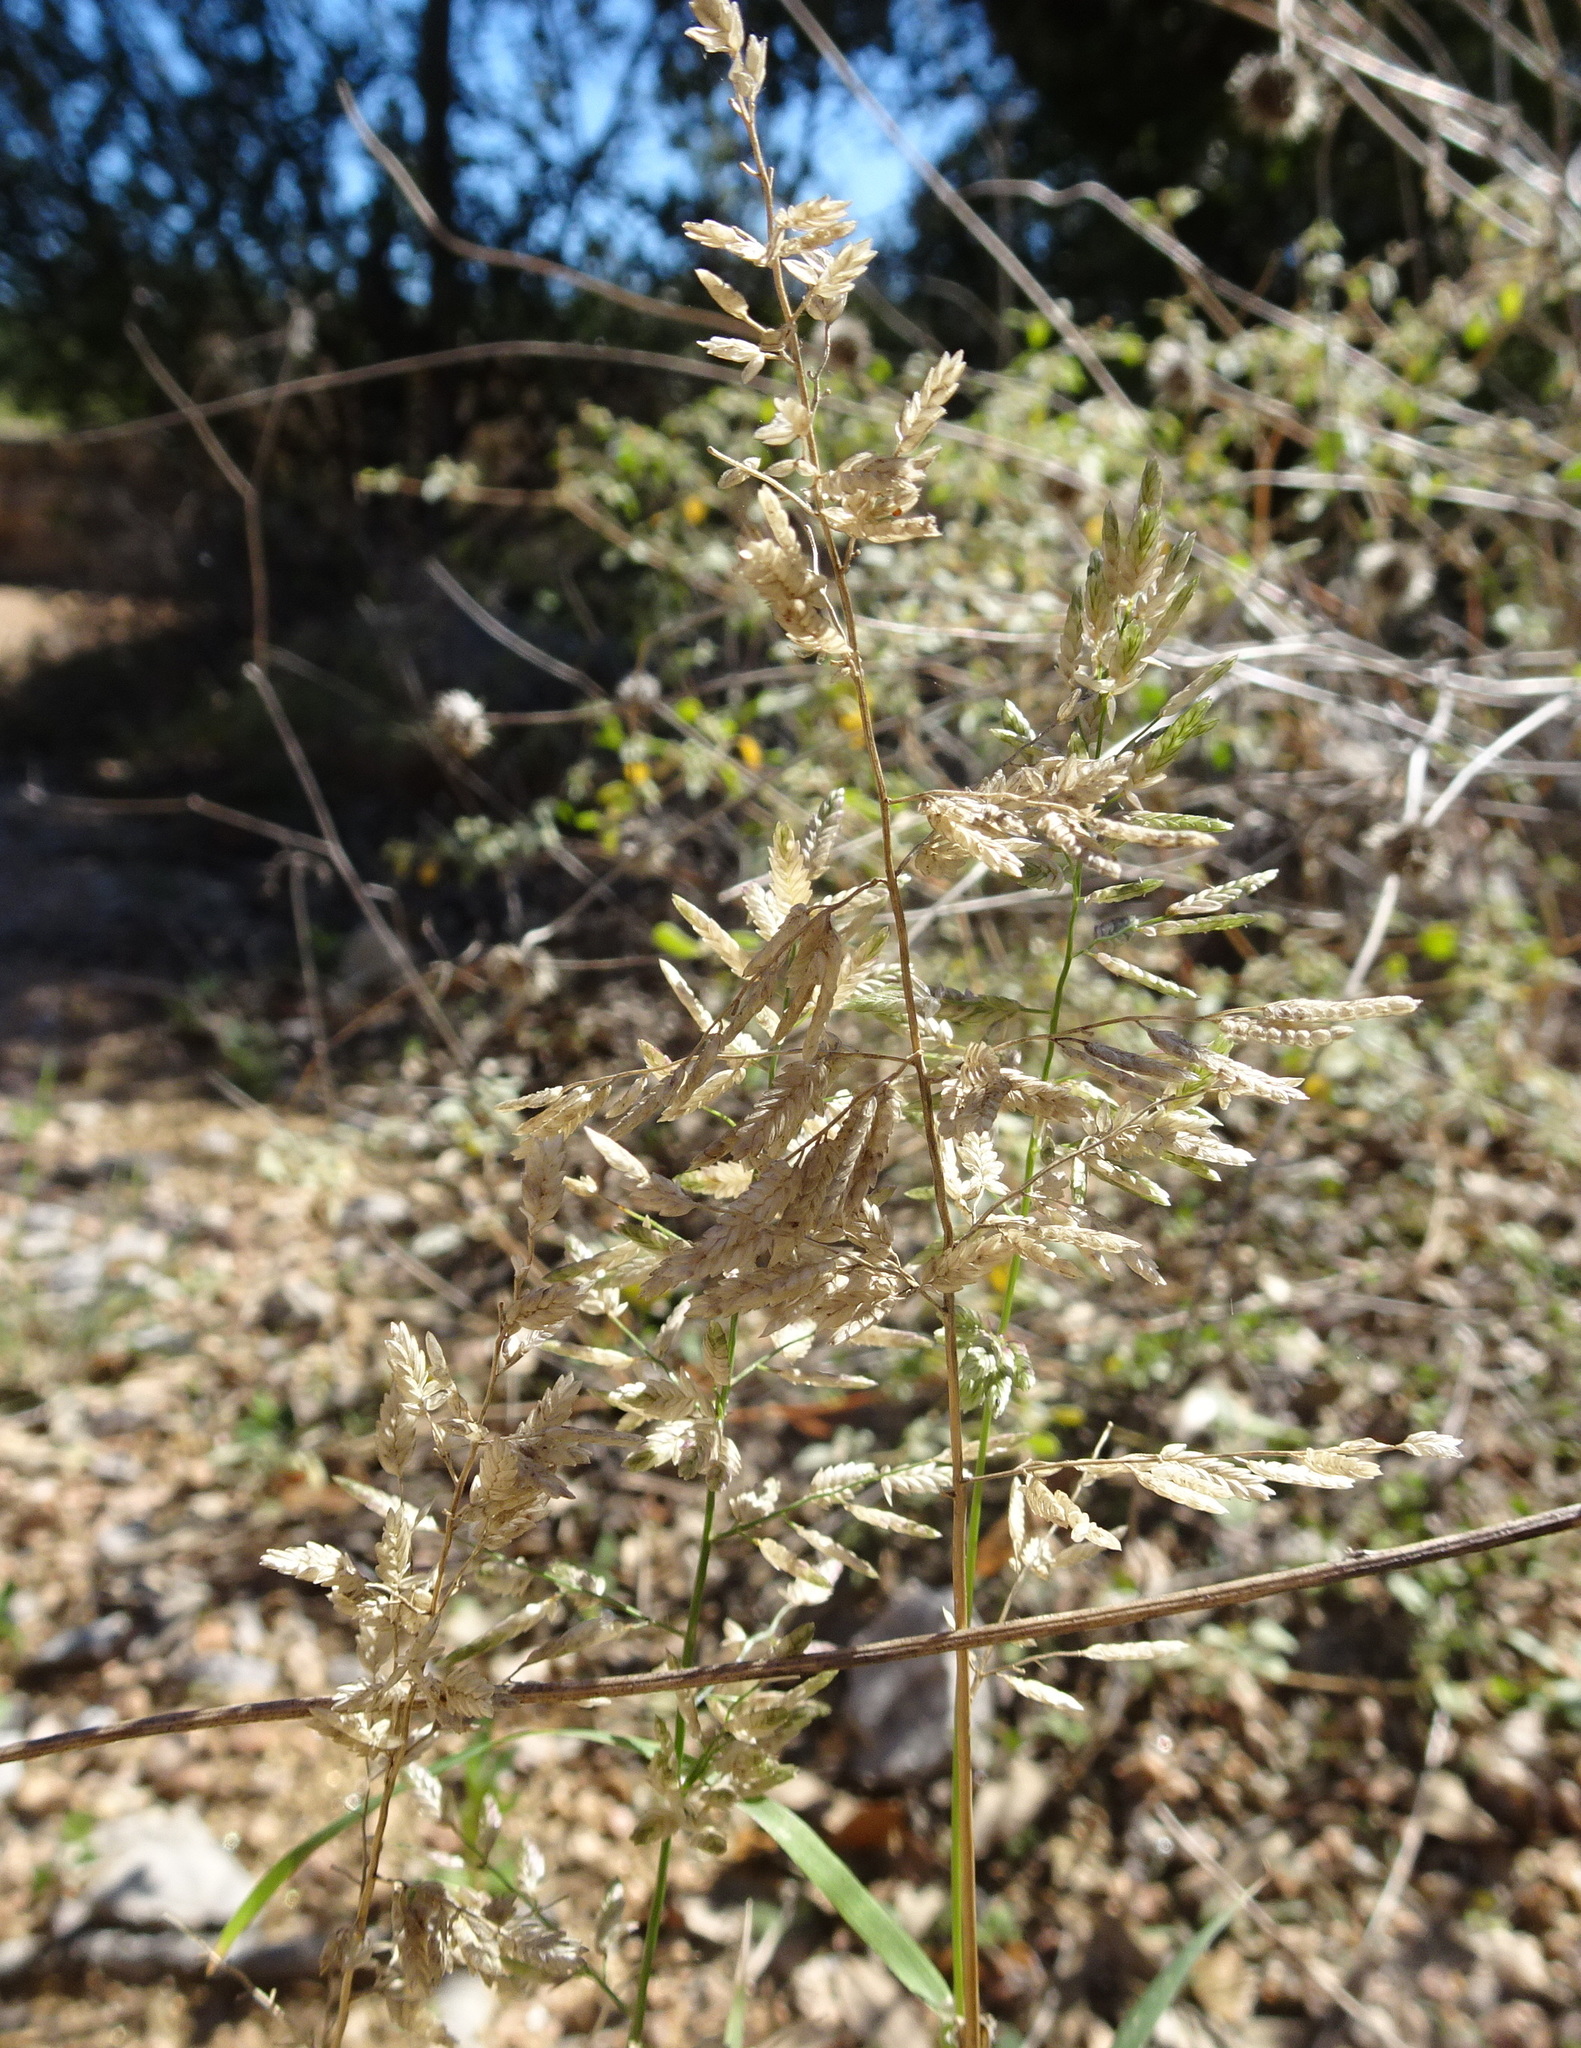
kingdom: Plantae
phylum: Tracheophyta
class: Liliopsida
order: Poales
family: Poaceae
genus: Eragrostis
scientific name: Eragrostis cilianensis
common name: Stinkgrass
